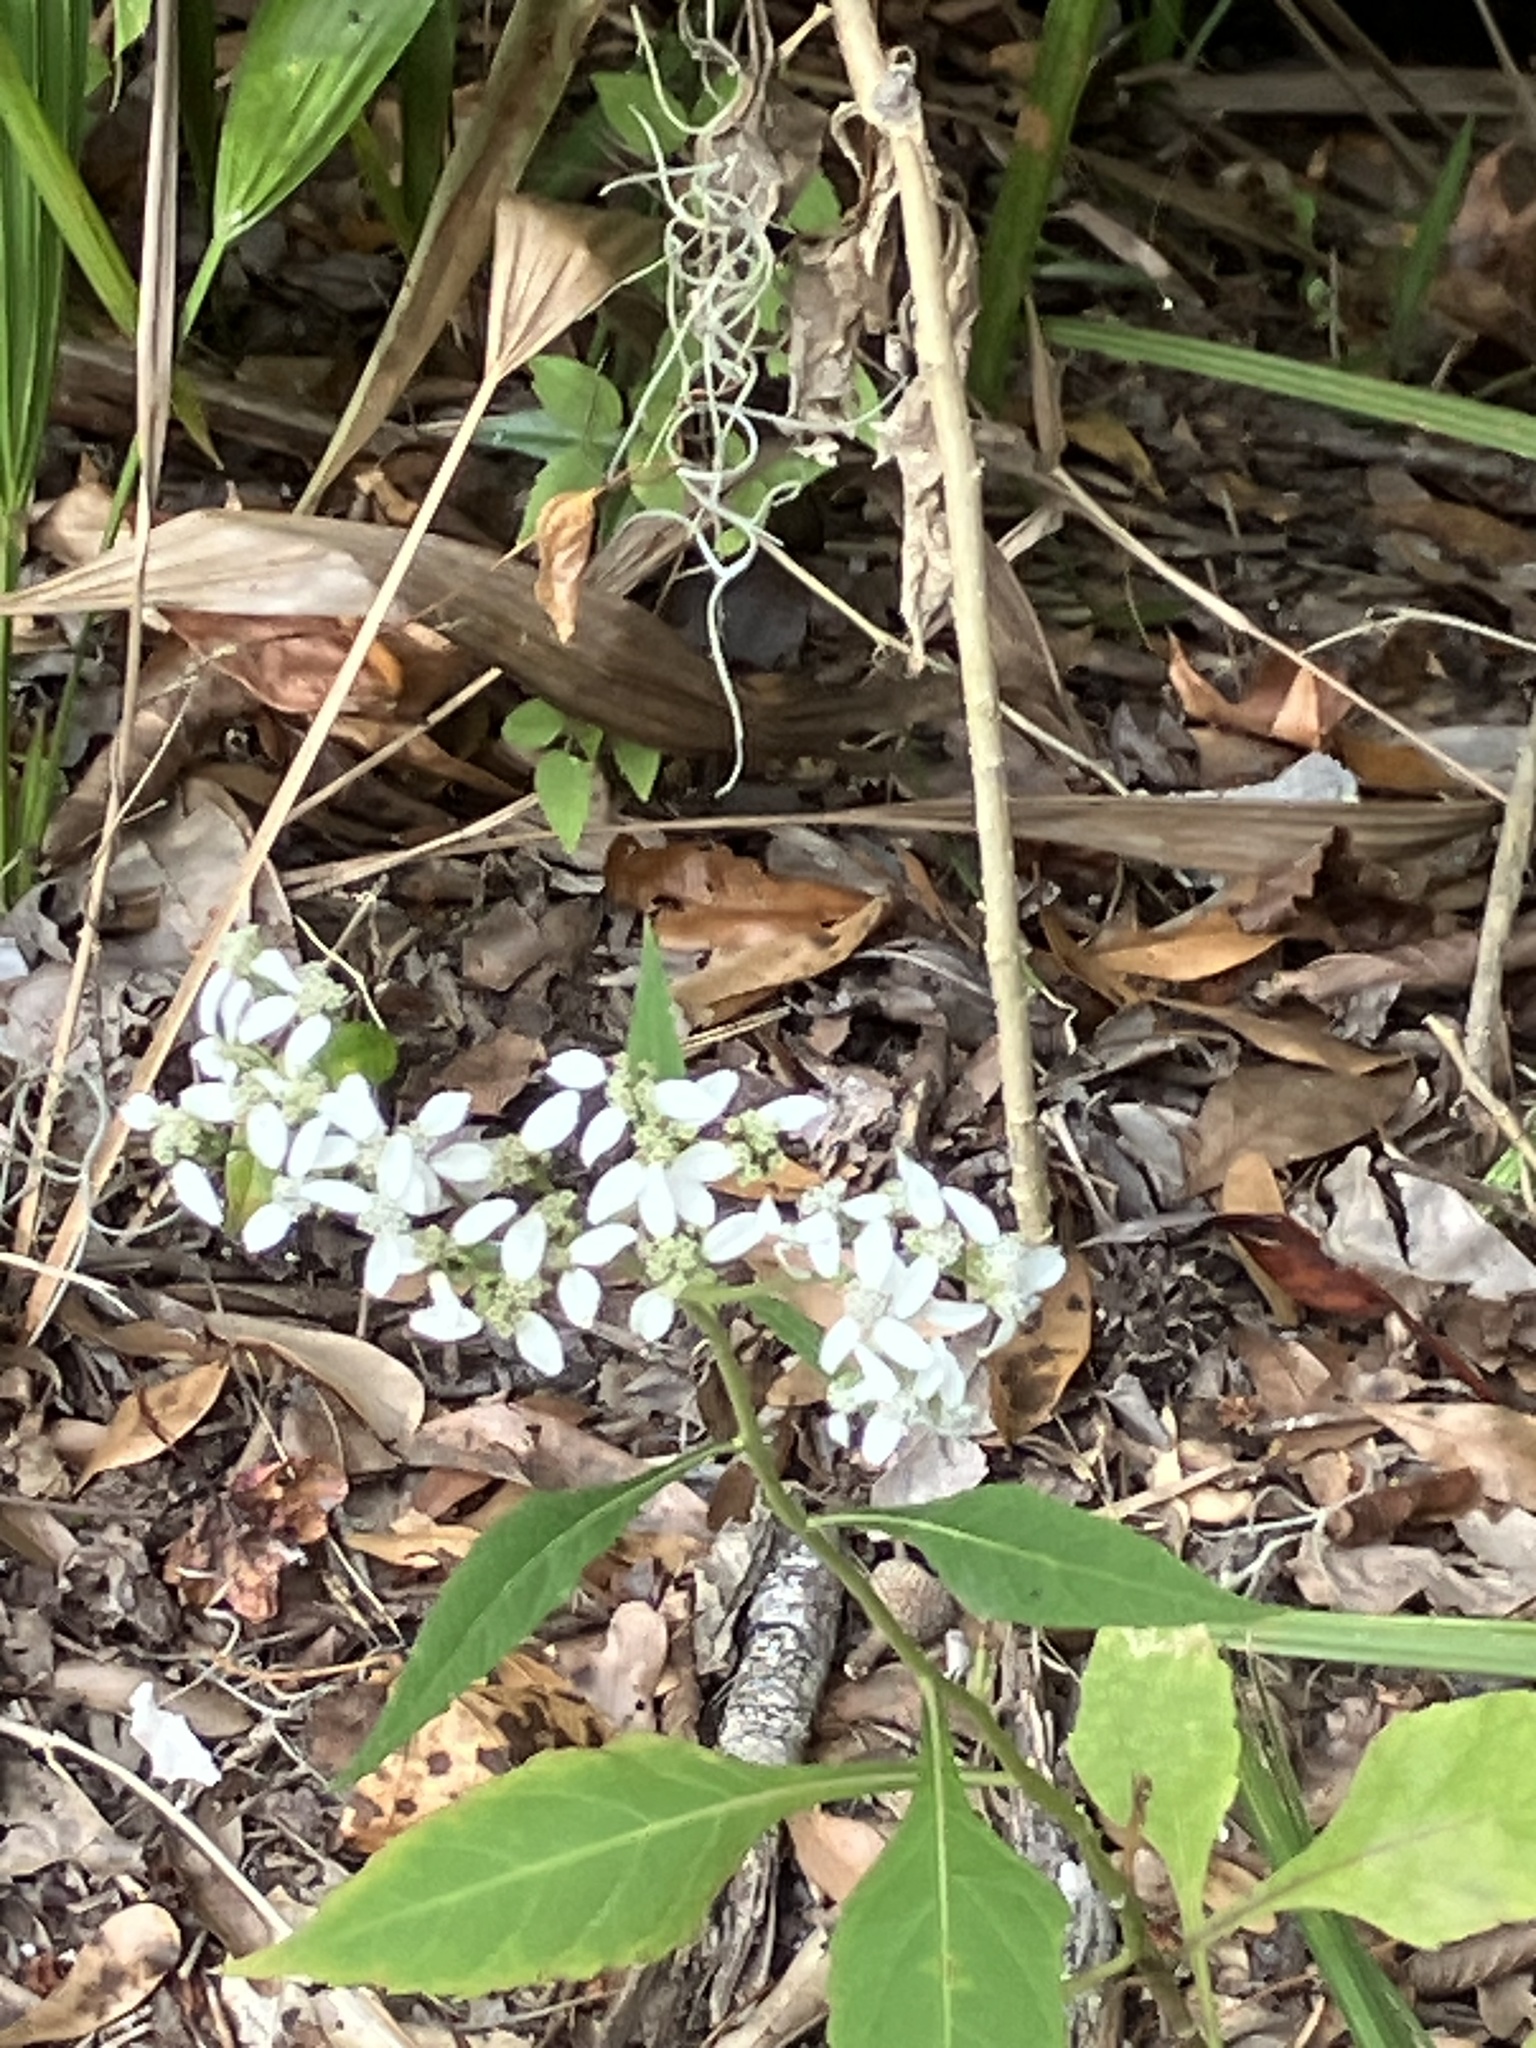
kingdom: Plantae
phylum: Tracheophyta
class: Magnoliopsida
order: Asterales
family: Asteraceae
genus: Verbesina
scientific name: Verbesina virginica
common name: Frostweed
